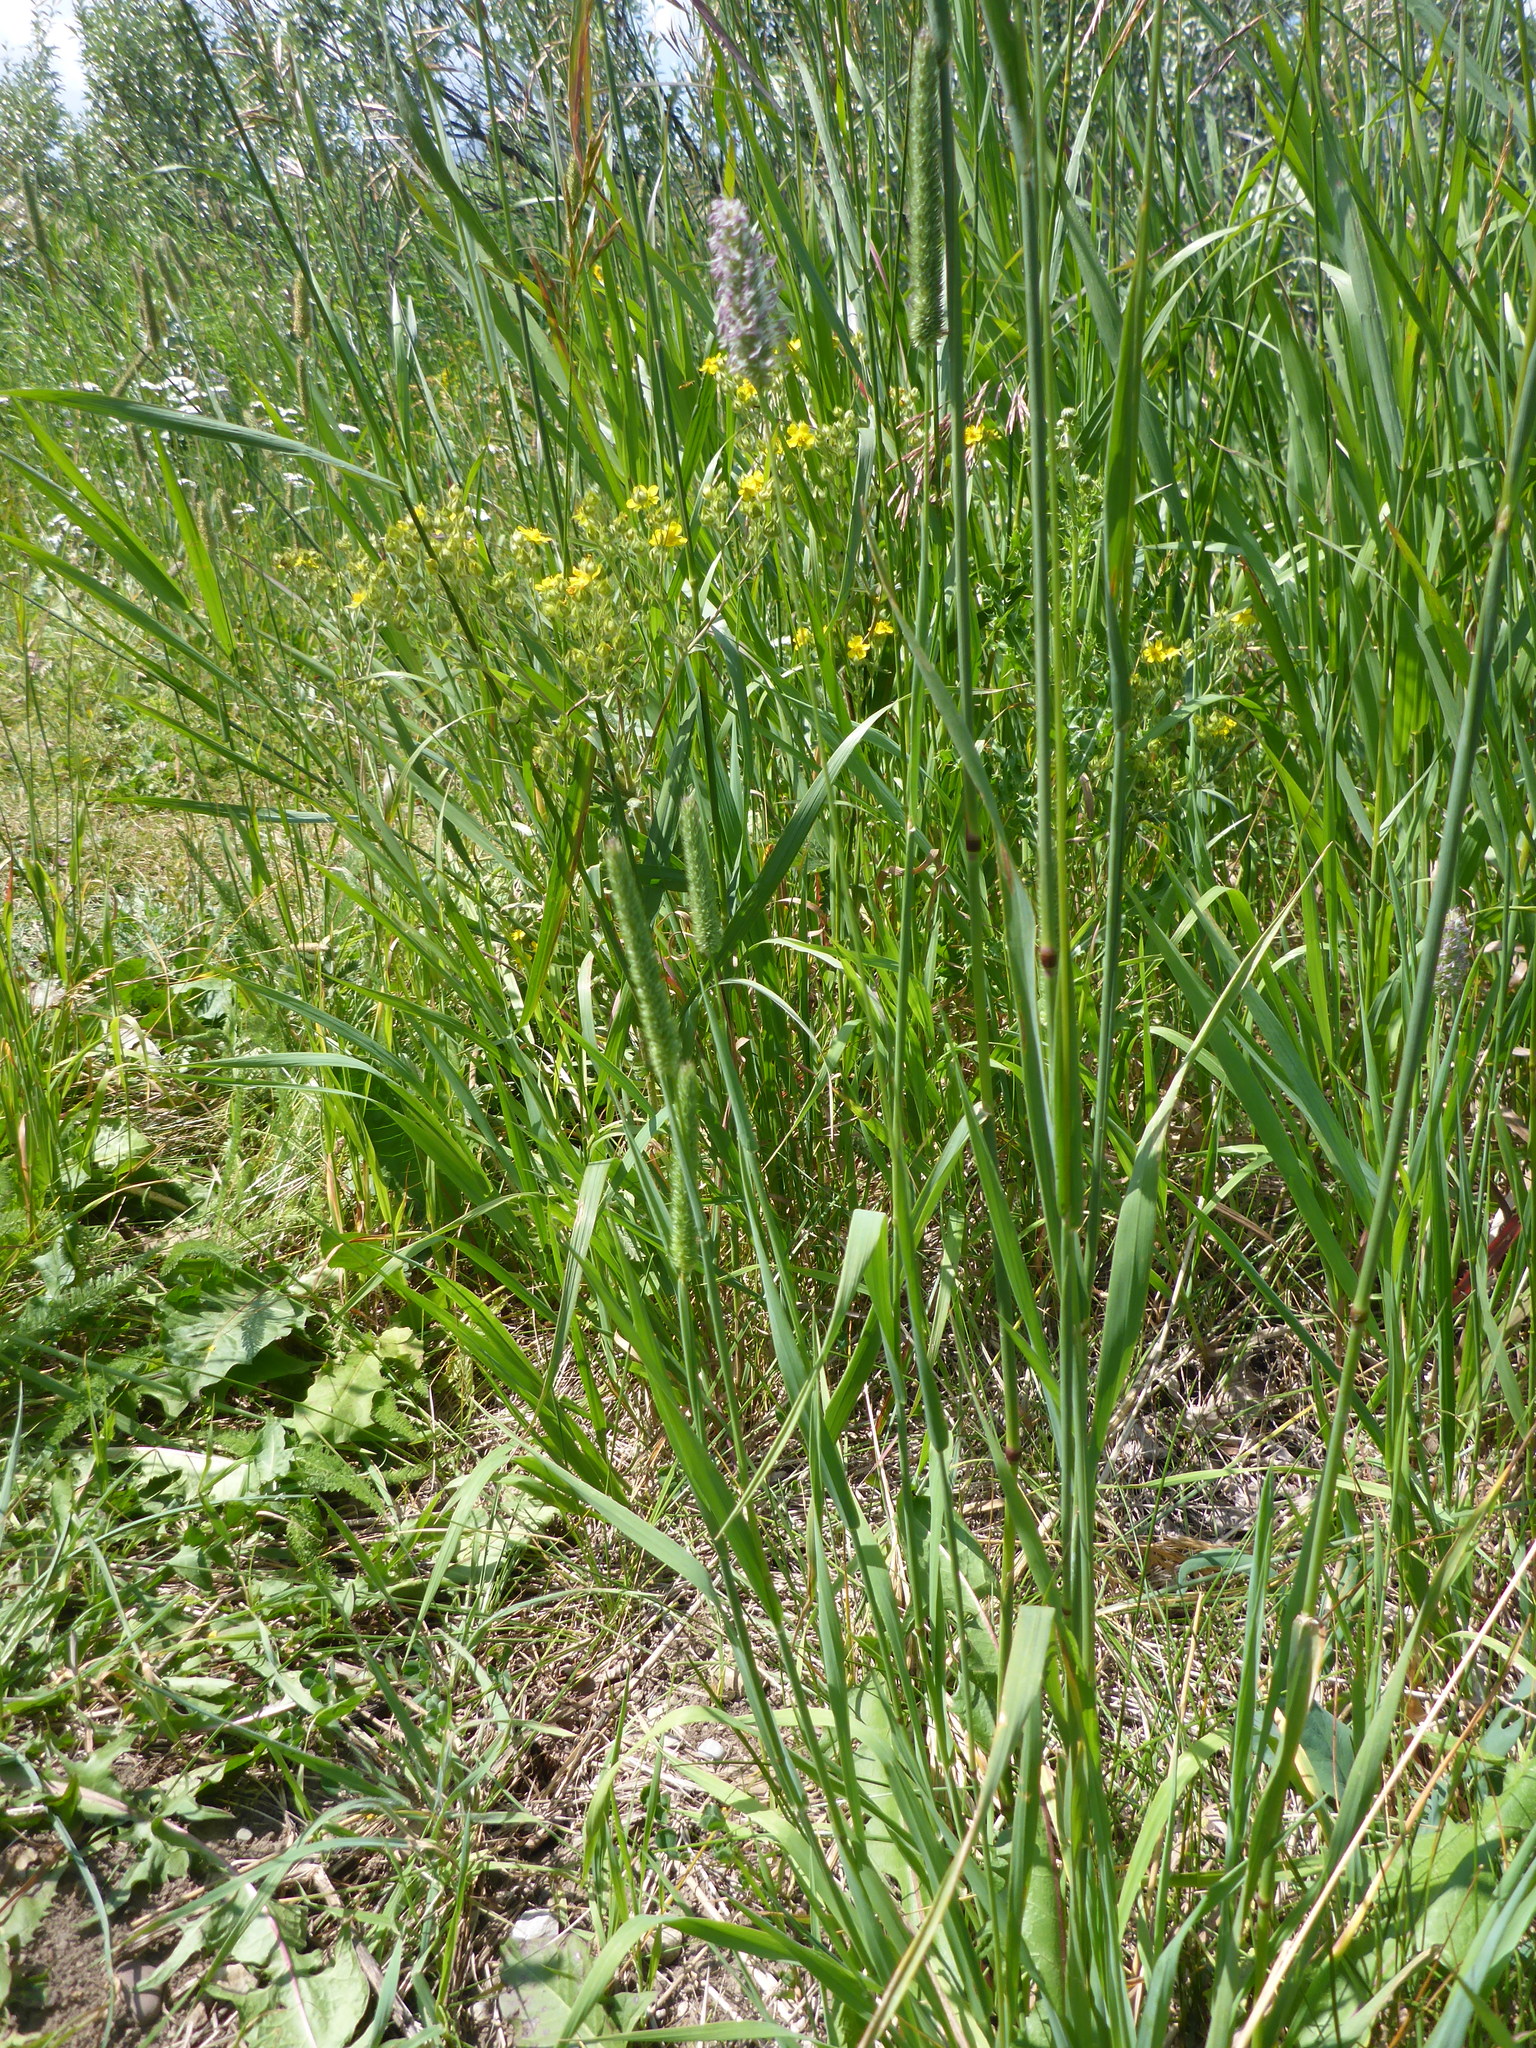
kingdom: Plantae
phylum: Tracheophyta
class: Liliopsida
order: Poales
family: Poaceae
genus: Phleum
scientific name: Phleum pratense
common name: Timothy grass
